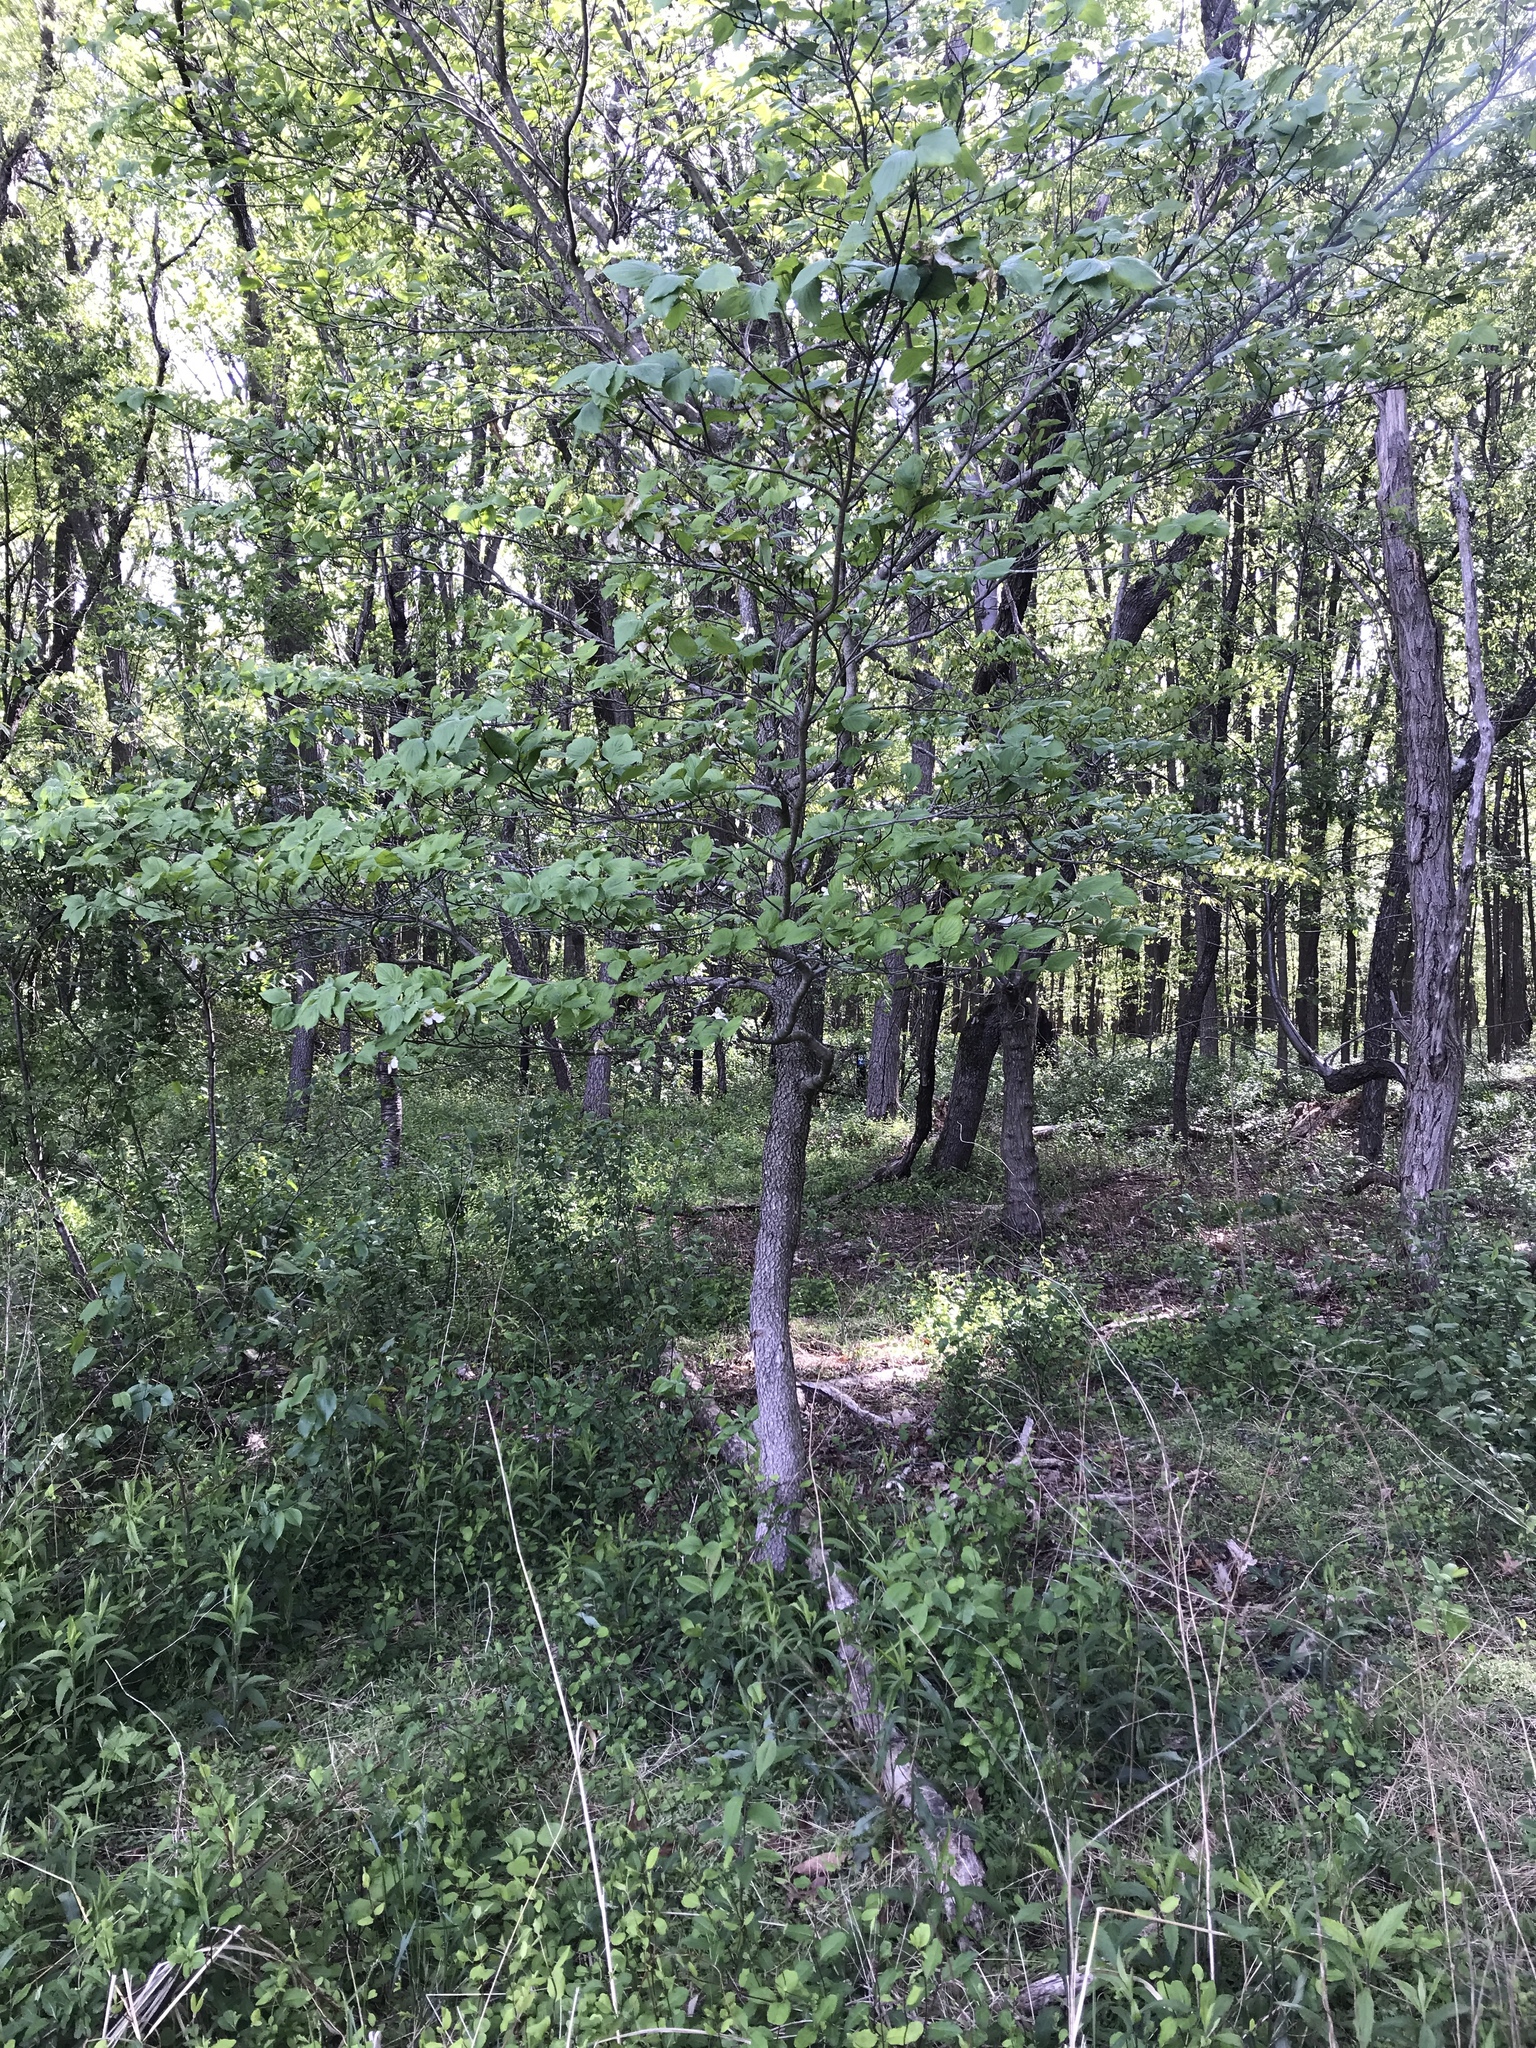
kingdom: Plantae
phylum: Tracheophyta
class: Magnoliopsida
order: Cornales
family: Cornaceae
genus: Cornus
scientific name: Cornus florida
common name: Flowering dogwood
